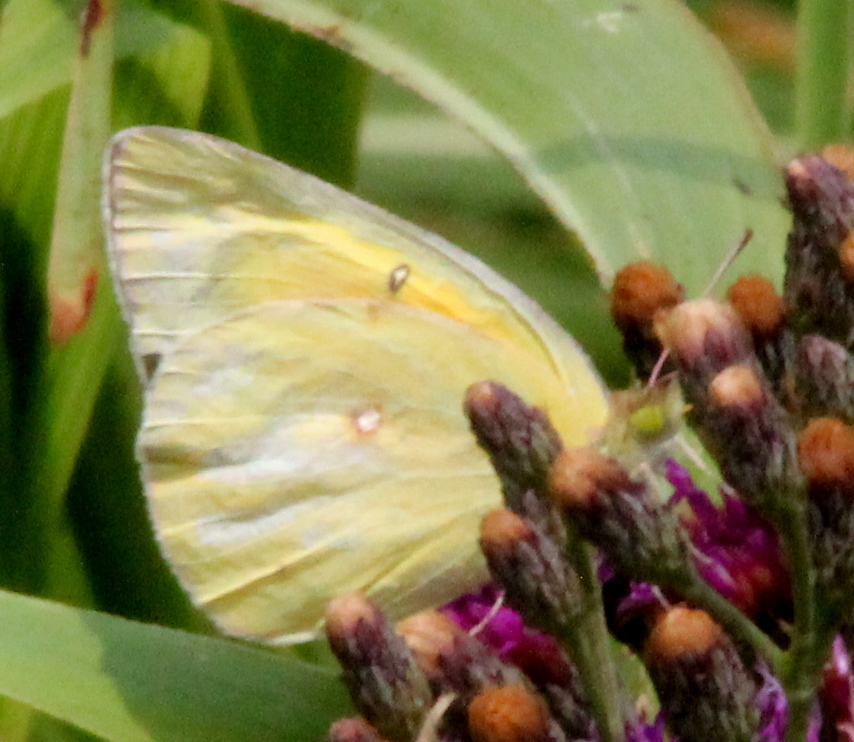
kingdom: Animalia
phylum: Arthropoda
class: Insecta
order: Lepidoptera
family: Pieridae
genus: Colias
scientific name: Colias eurytheme
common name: Alfalfa butterfly
